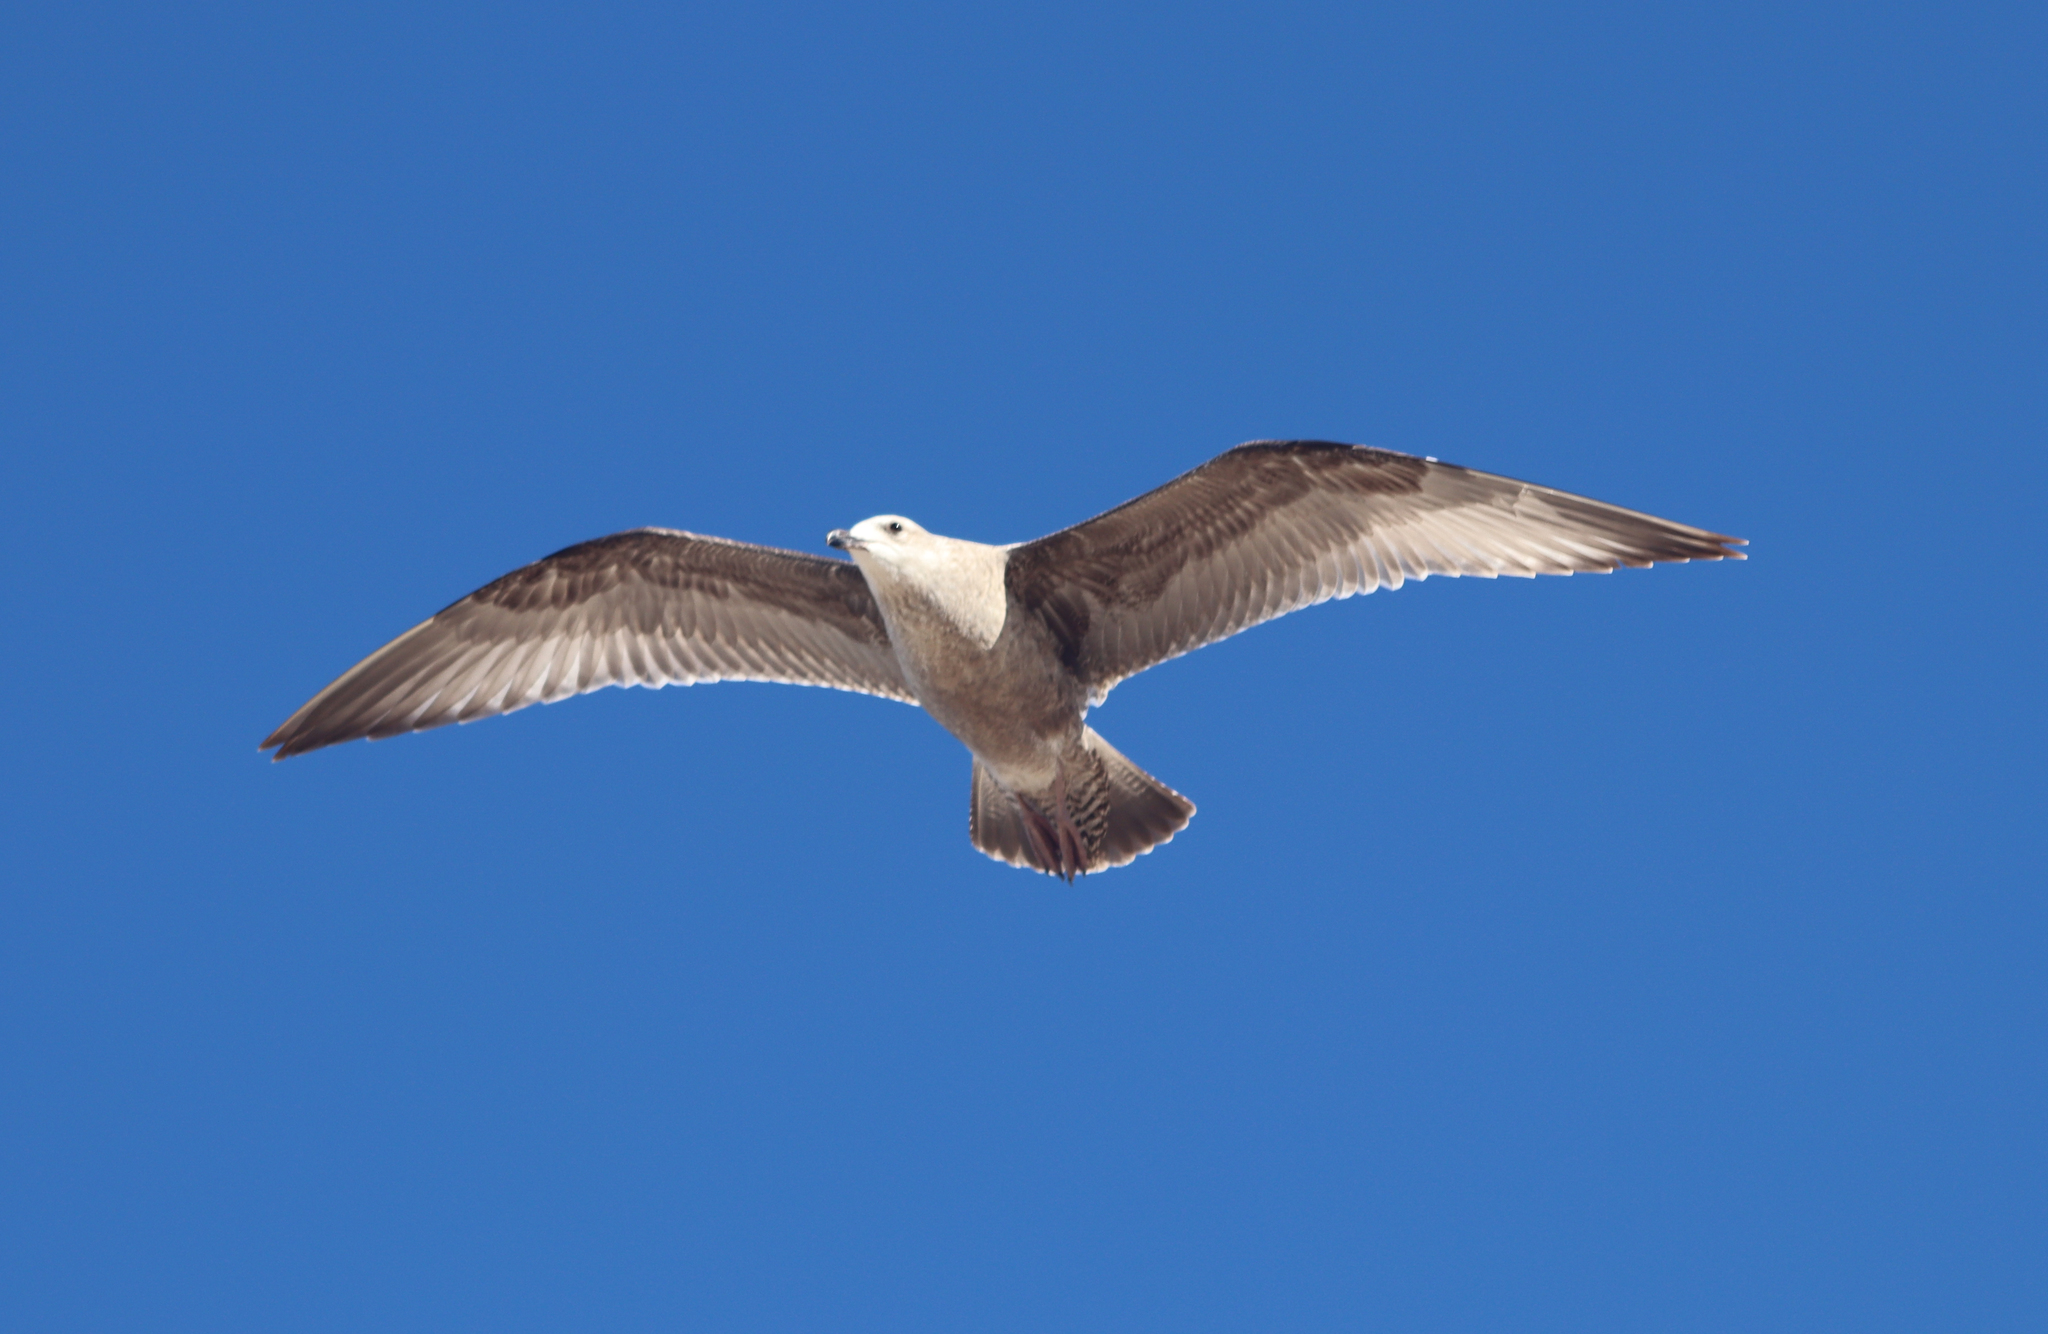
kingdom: Animalia
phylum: Chordata
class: Aves
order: Charadriiformes
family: Laridae
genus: Larus
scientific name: Larus argentatus
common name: Herring gull
